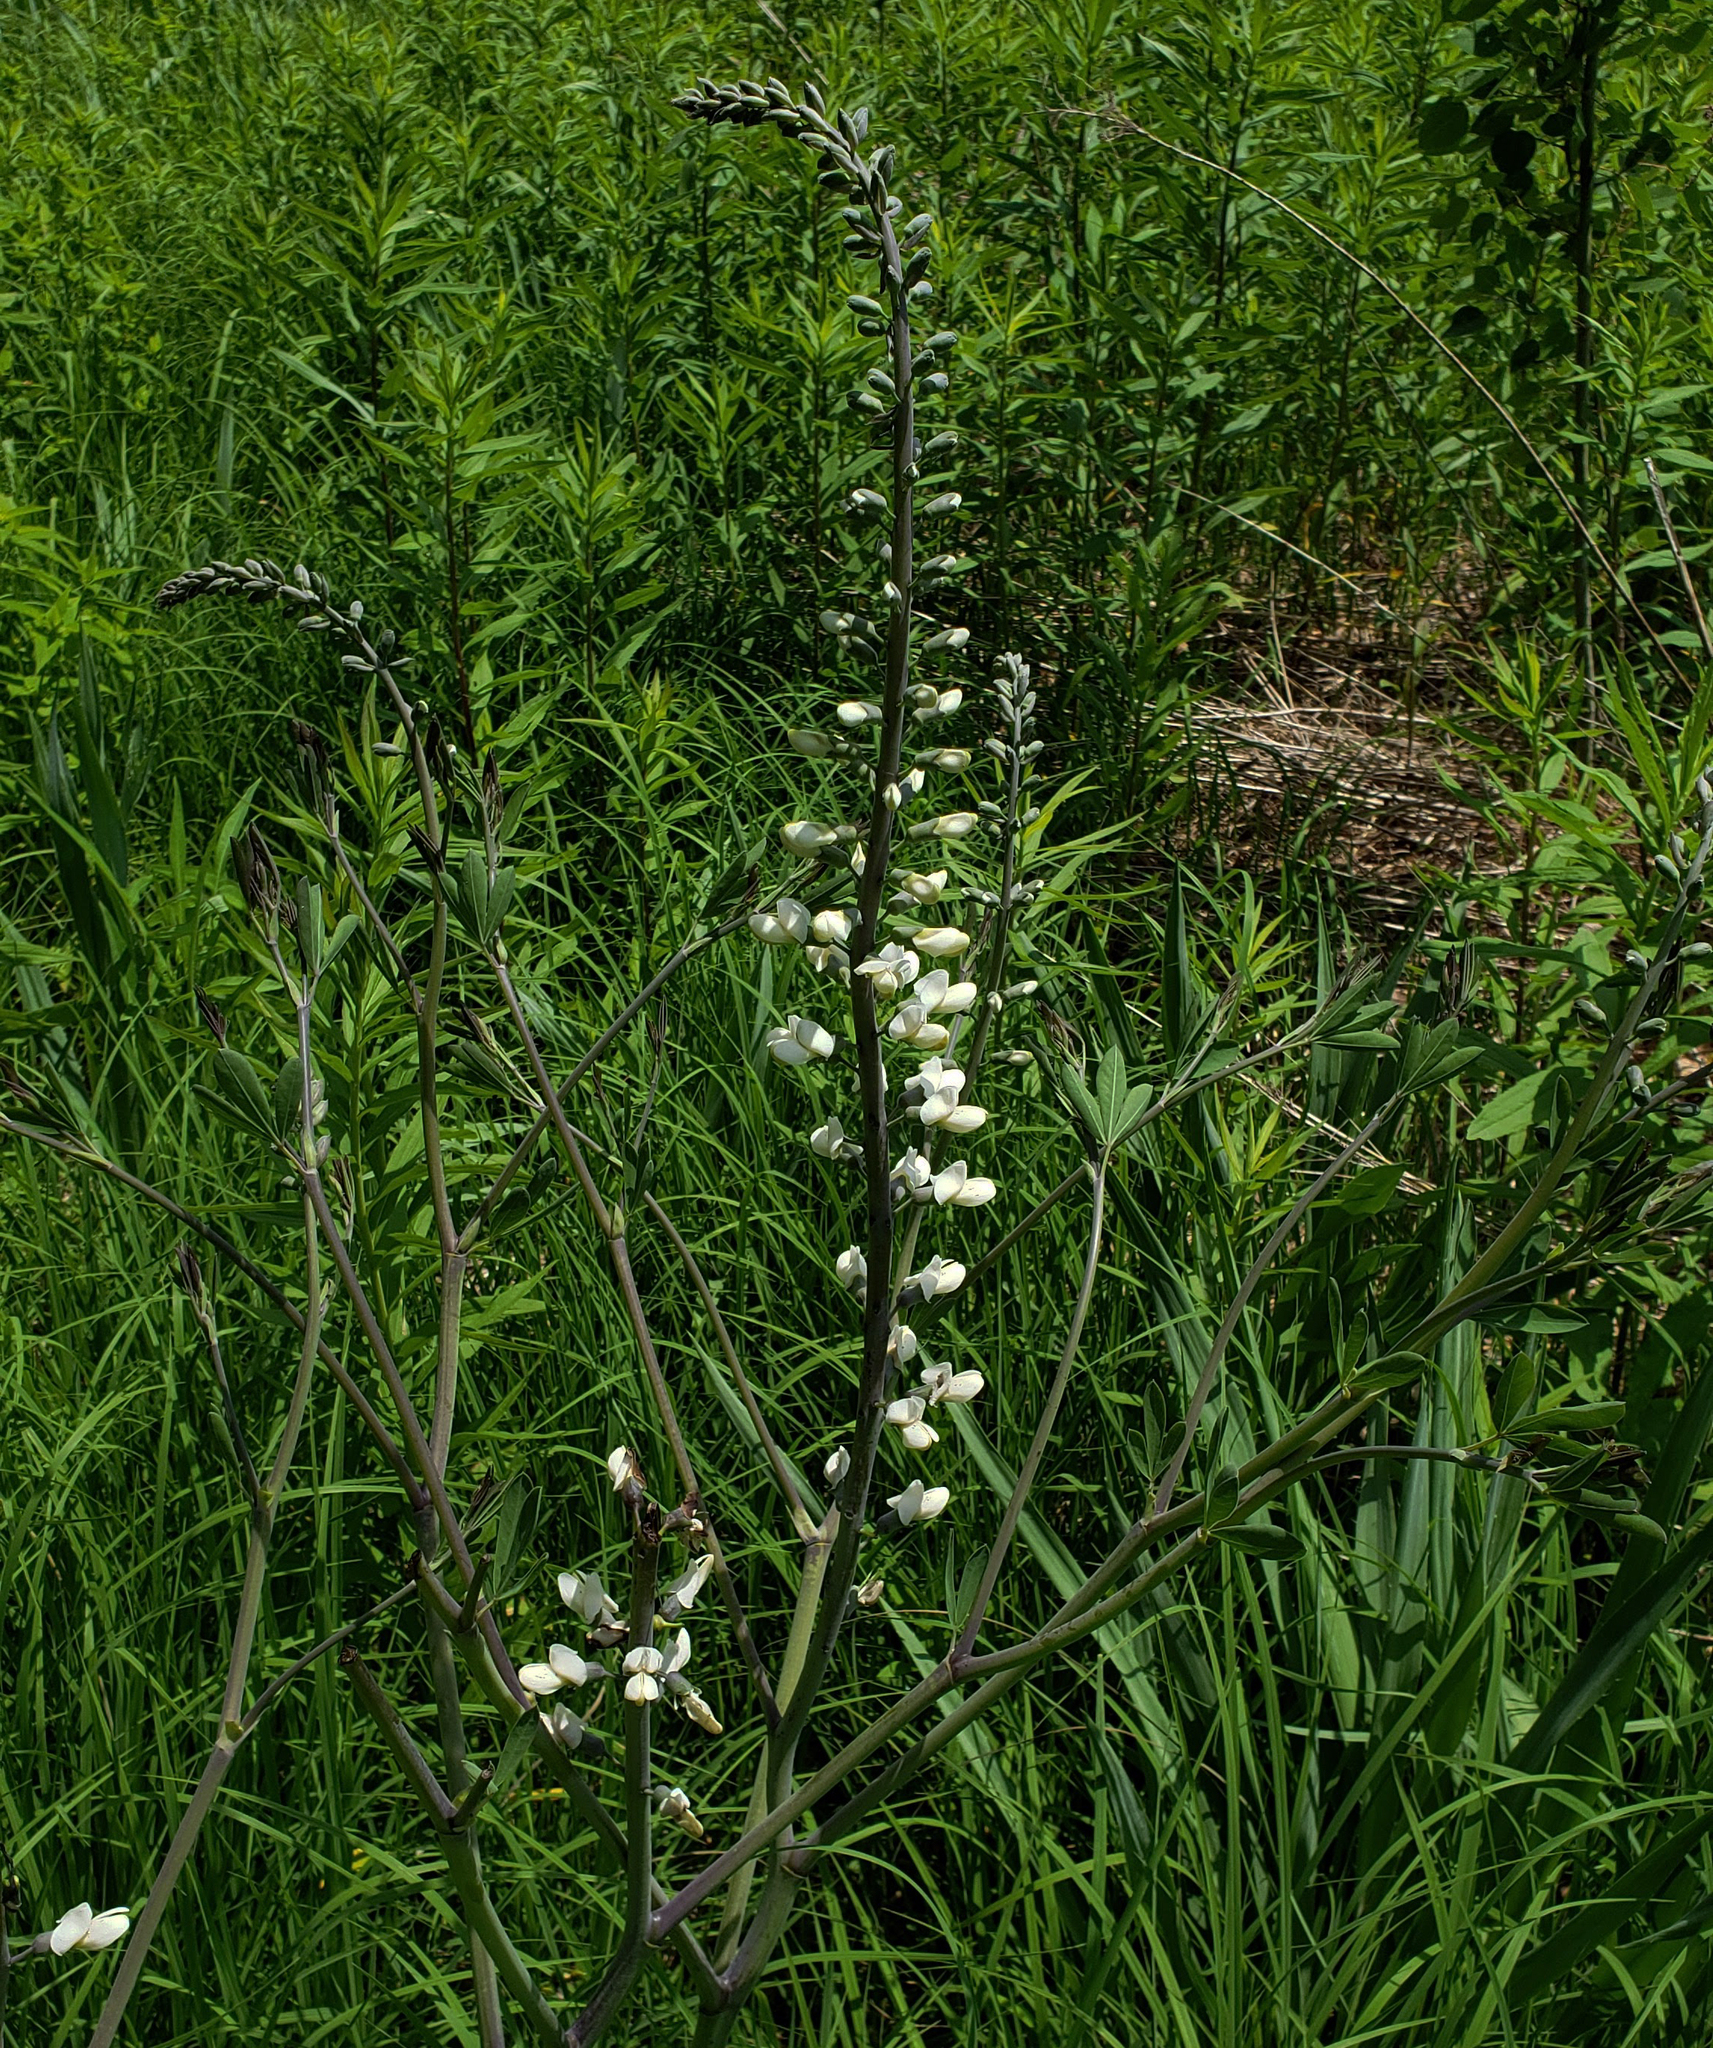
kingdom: Plantae
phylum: Tracheophyta
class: Magnoliopsida
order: Fabales
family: Fabaceae
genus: Baptisia
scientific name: Baptisia alba
